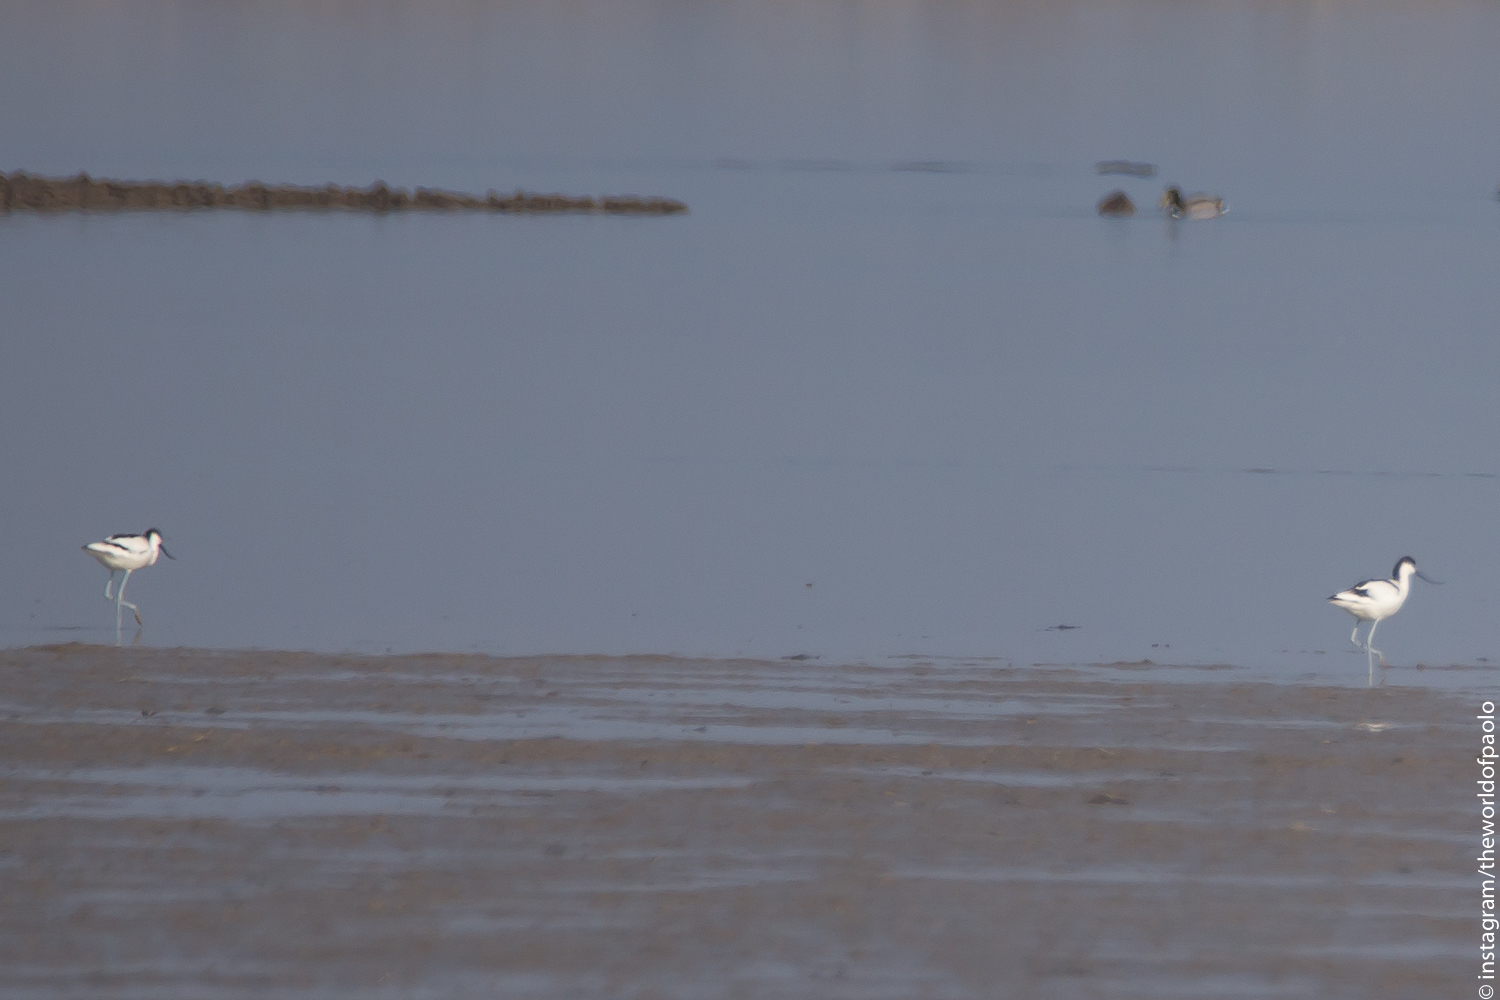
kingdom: Animalia
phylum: Chordata
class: Aves
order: Charadriiformes
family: Recurvirostridae
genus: Recurvirostra
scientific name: Recurvirostra avosetta
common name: Pied avocet
